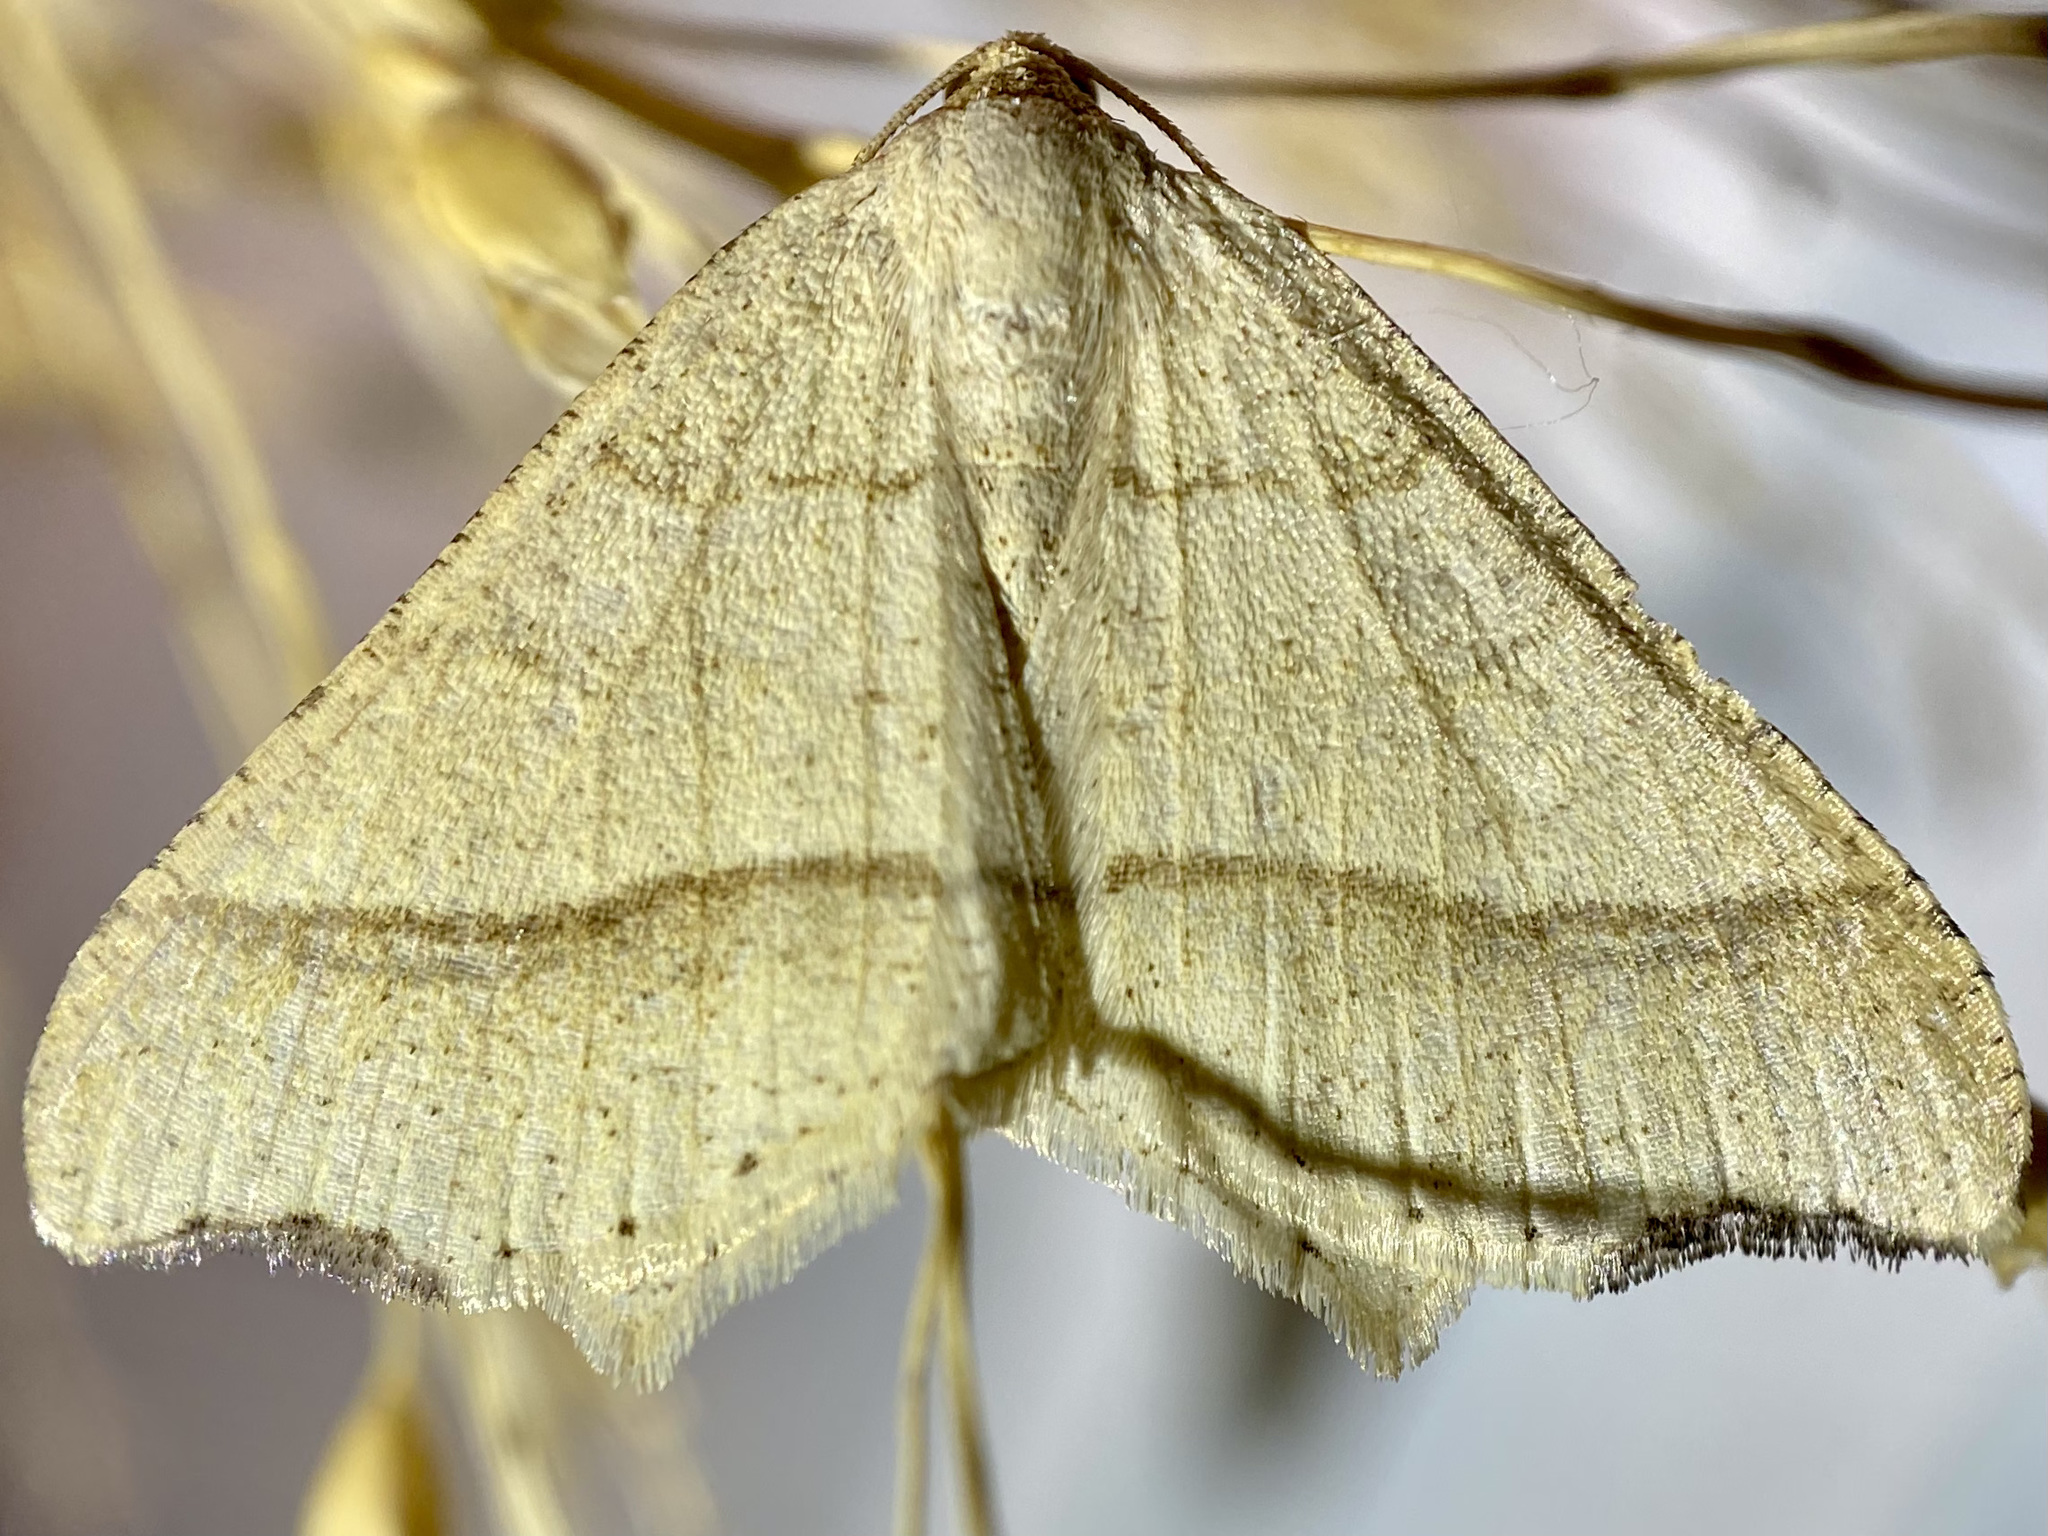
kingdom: Animalia
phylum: Arthropoda
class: Insecta
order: Lepidoptera
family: Geometridae
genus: Macaria
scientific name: Macaria metanemaria
